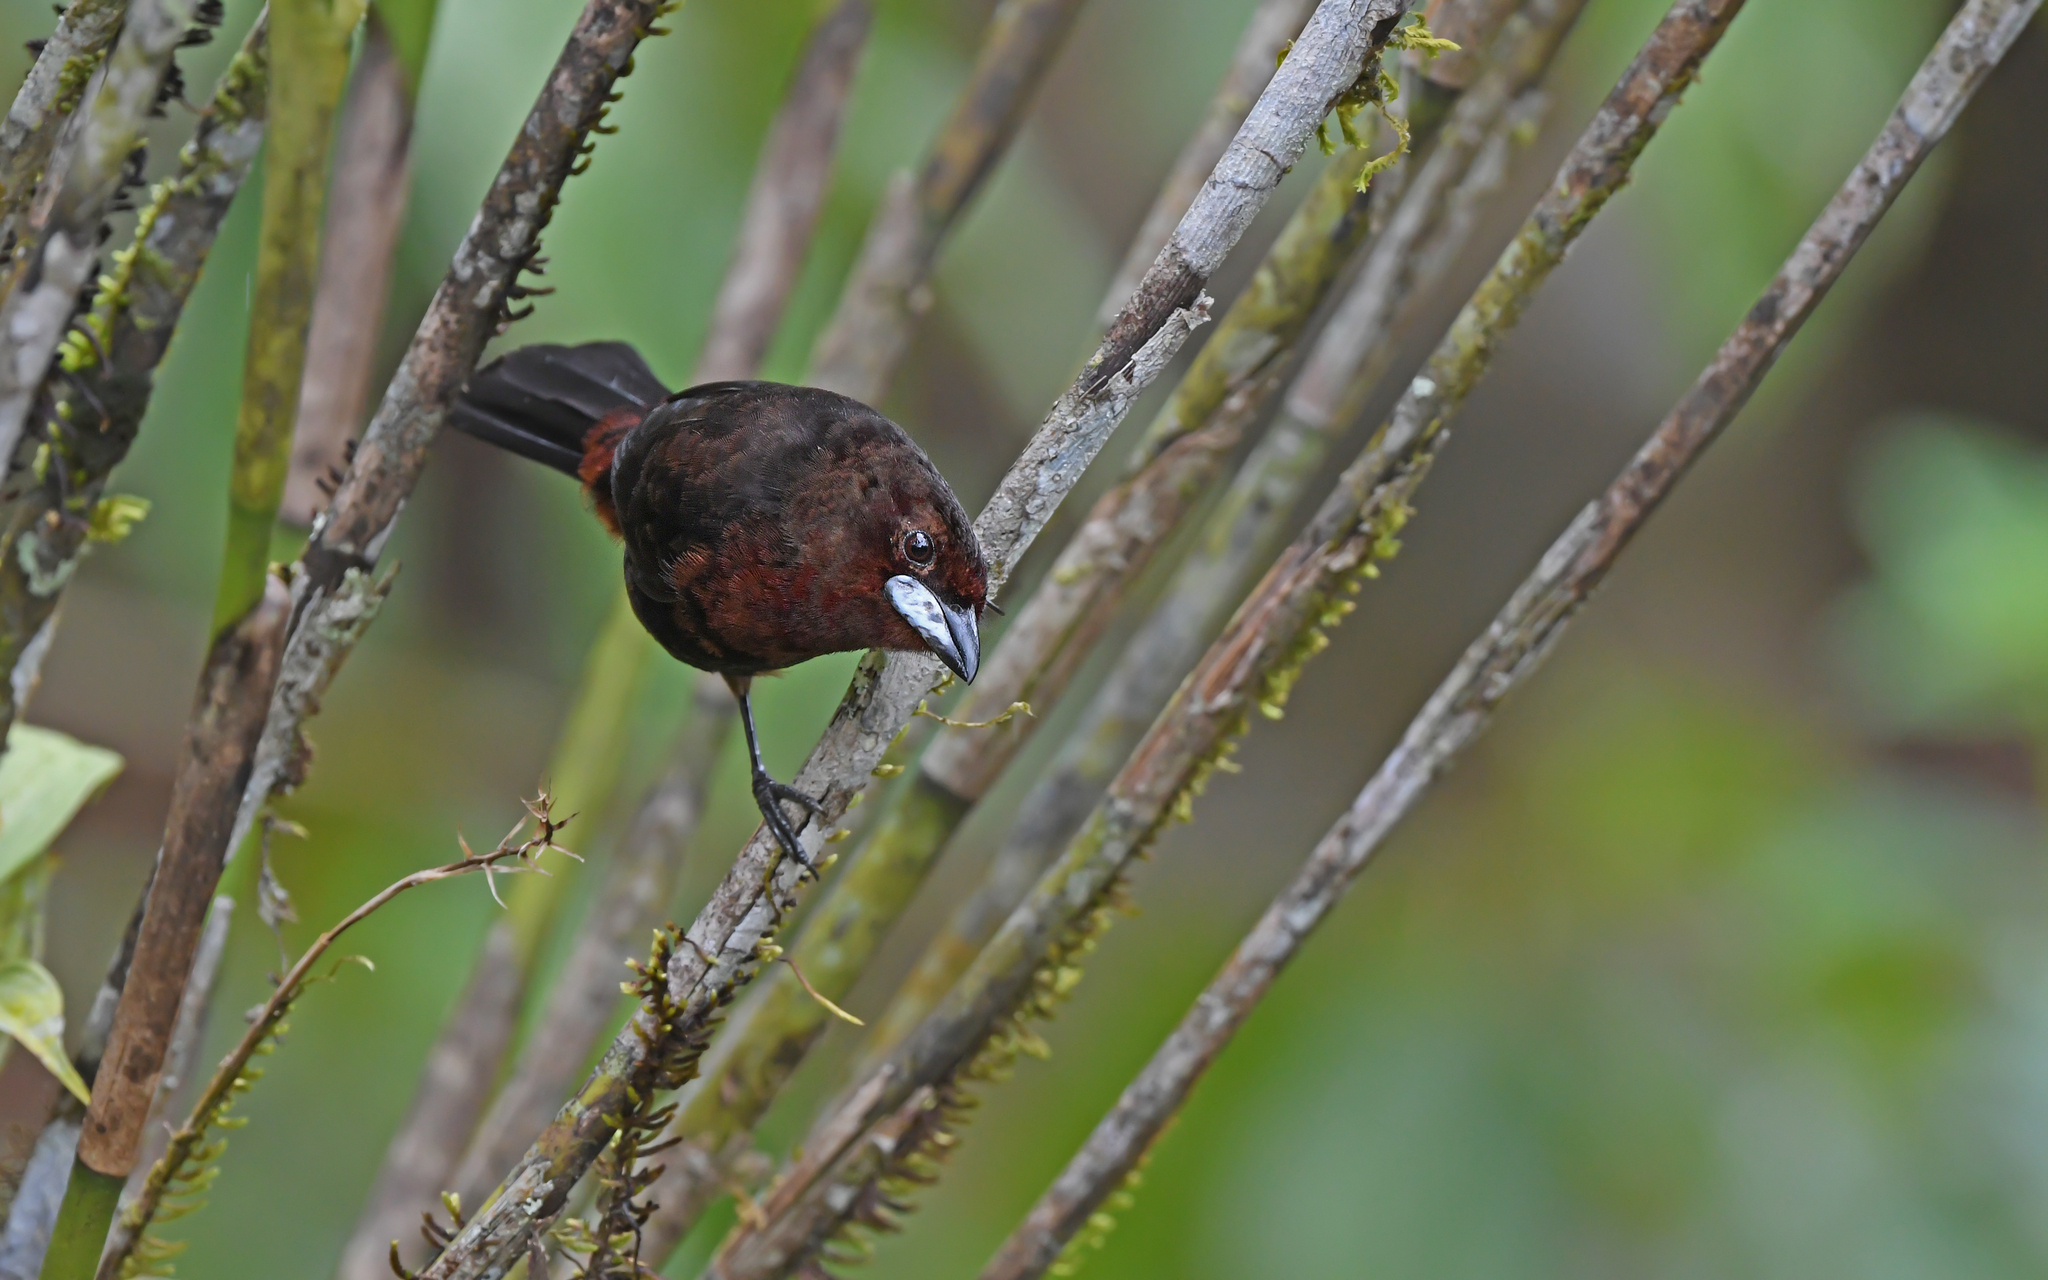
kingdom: Animalia
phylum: Chordata
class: Aves
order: Passeriformes
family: Thraupidae
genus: Ramphocelus
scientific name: Ramphocelus carbo
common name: Silver-beaked tanager
